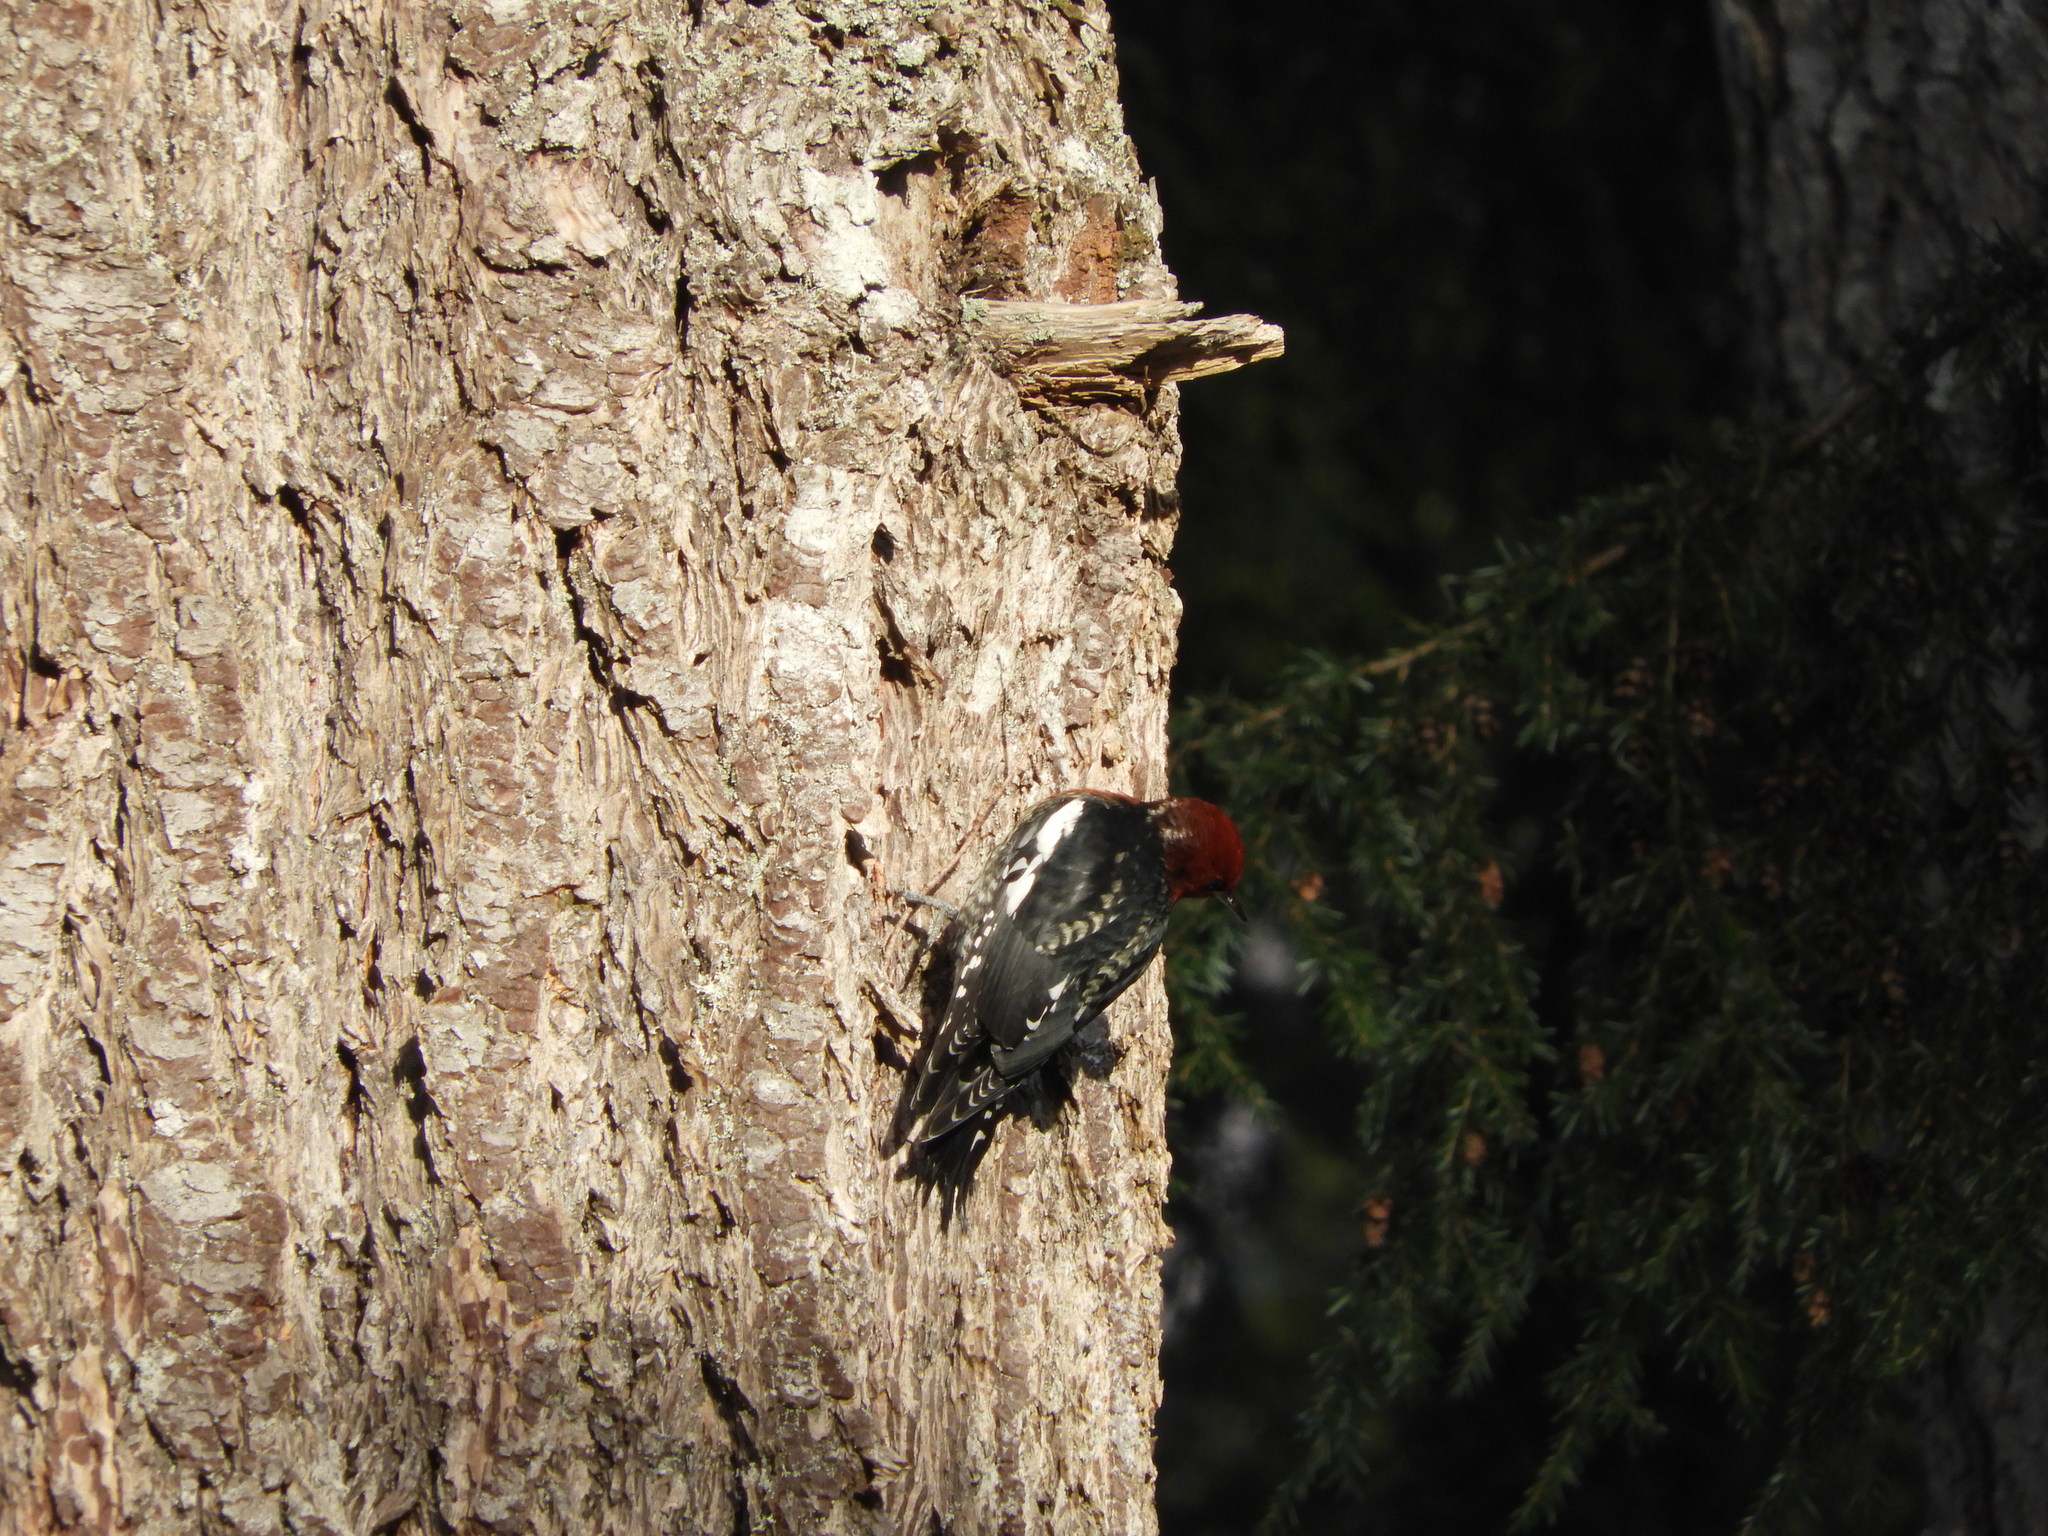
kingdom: Animalia
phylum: Chordata
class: Aves
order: Piciformes
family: Picidae
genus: Sphyrapicus
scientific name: Sphyrapicus ruber
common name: Red-breasted sapsucker
